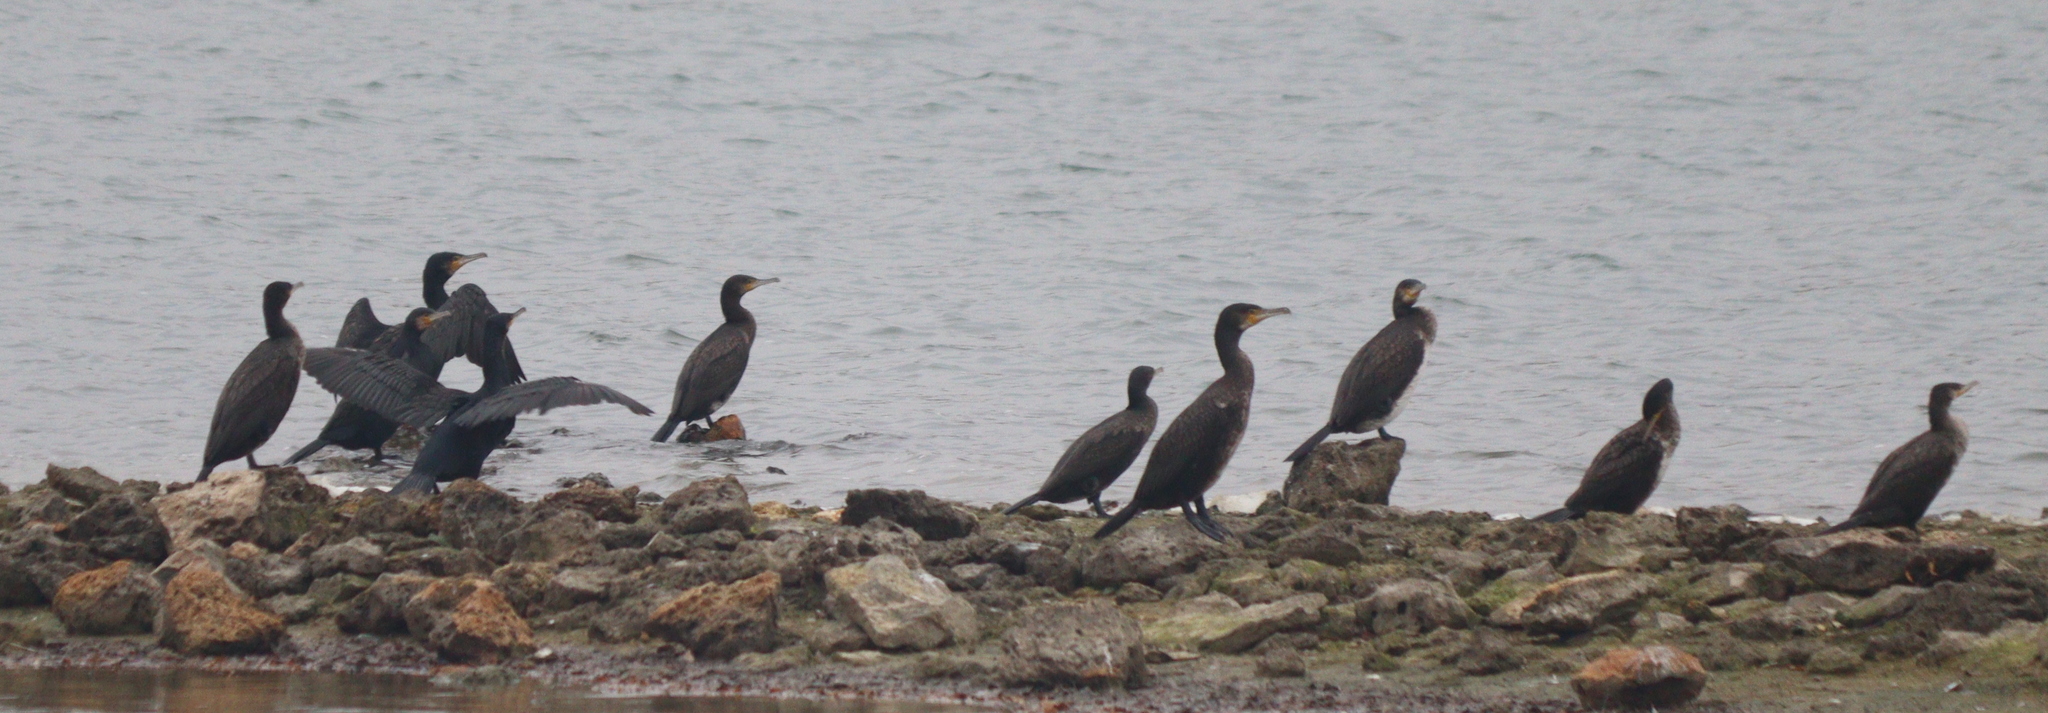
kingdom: Animalia
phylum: Chordata
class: Aves
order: Suliformes
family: Phalacrocoracidae
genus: Phalacrocorax
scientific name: Phalacrocorax carbo
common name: Great cormorant
